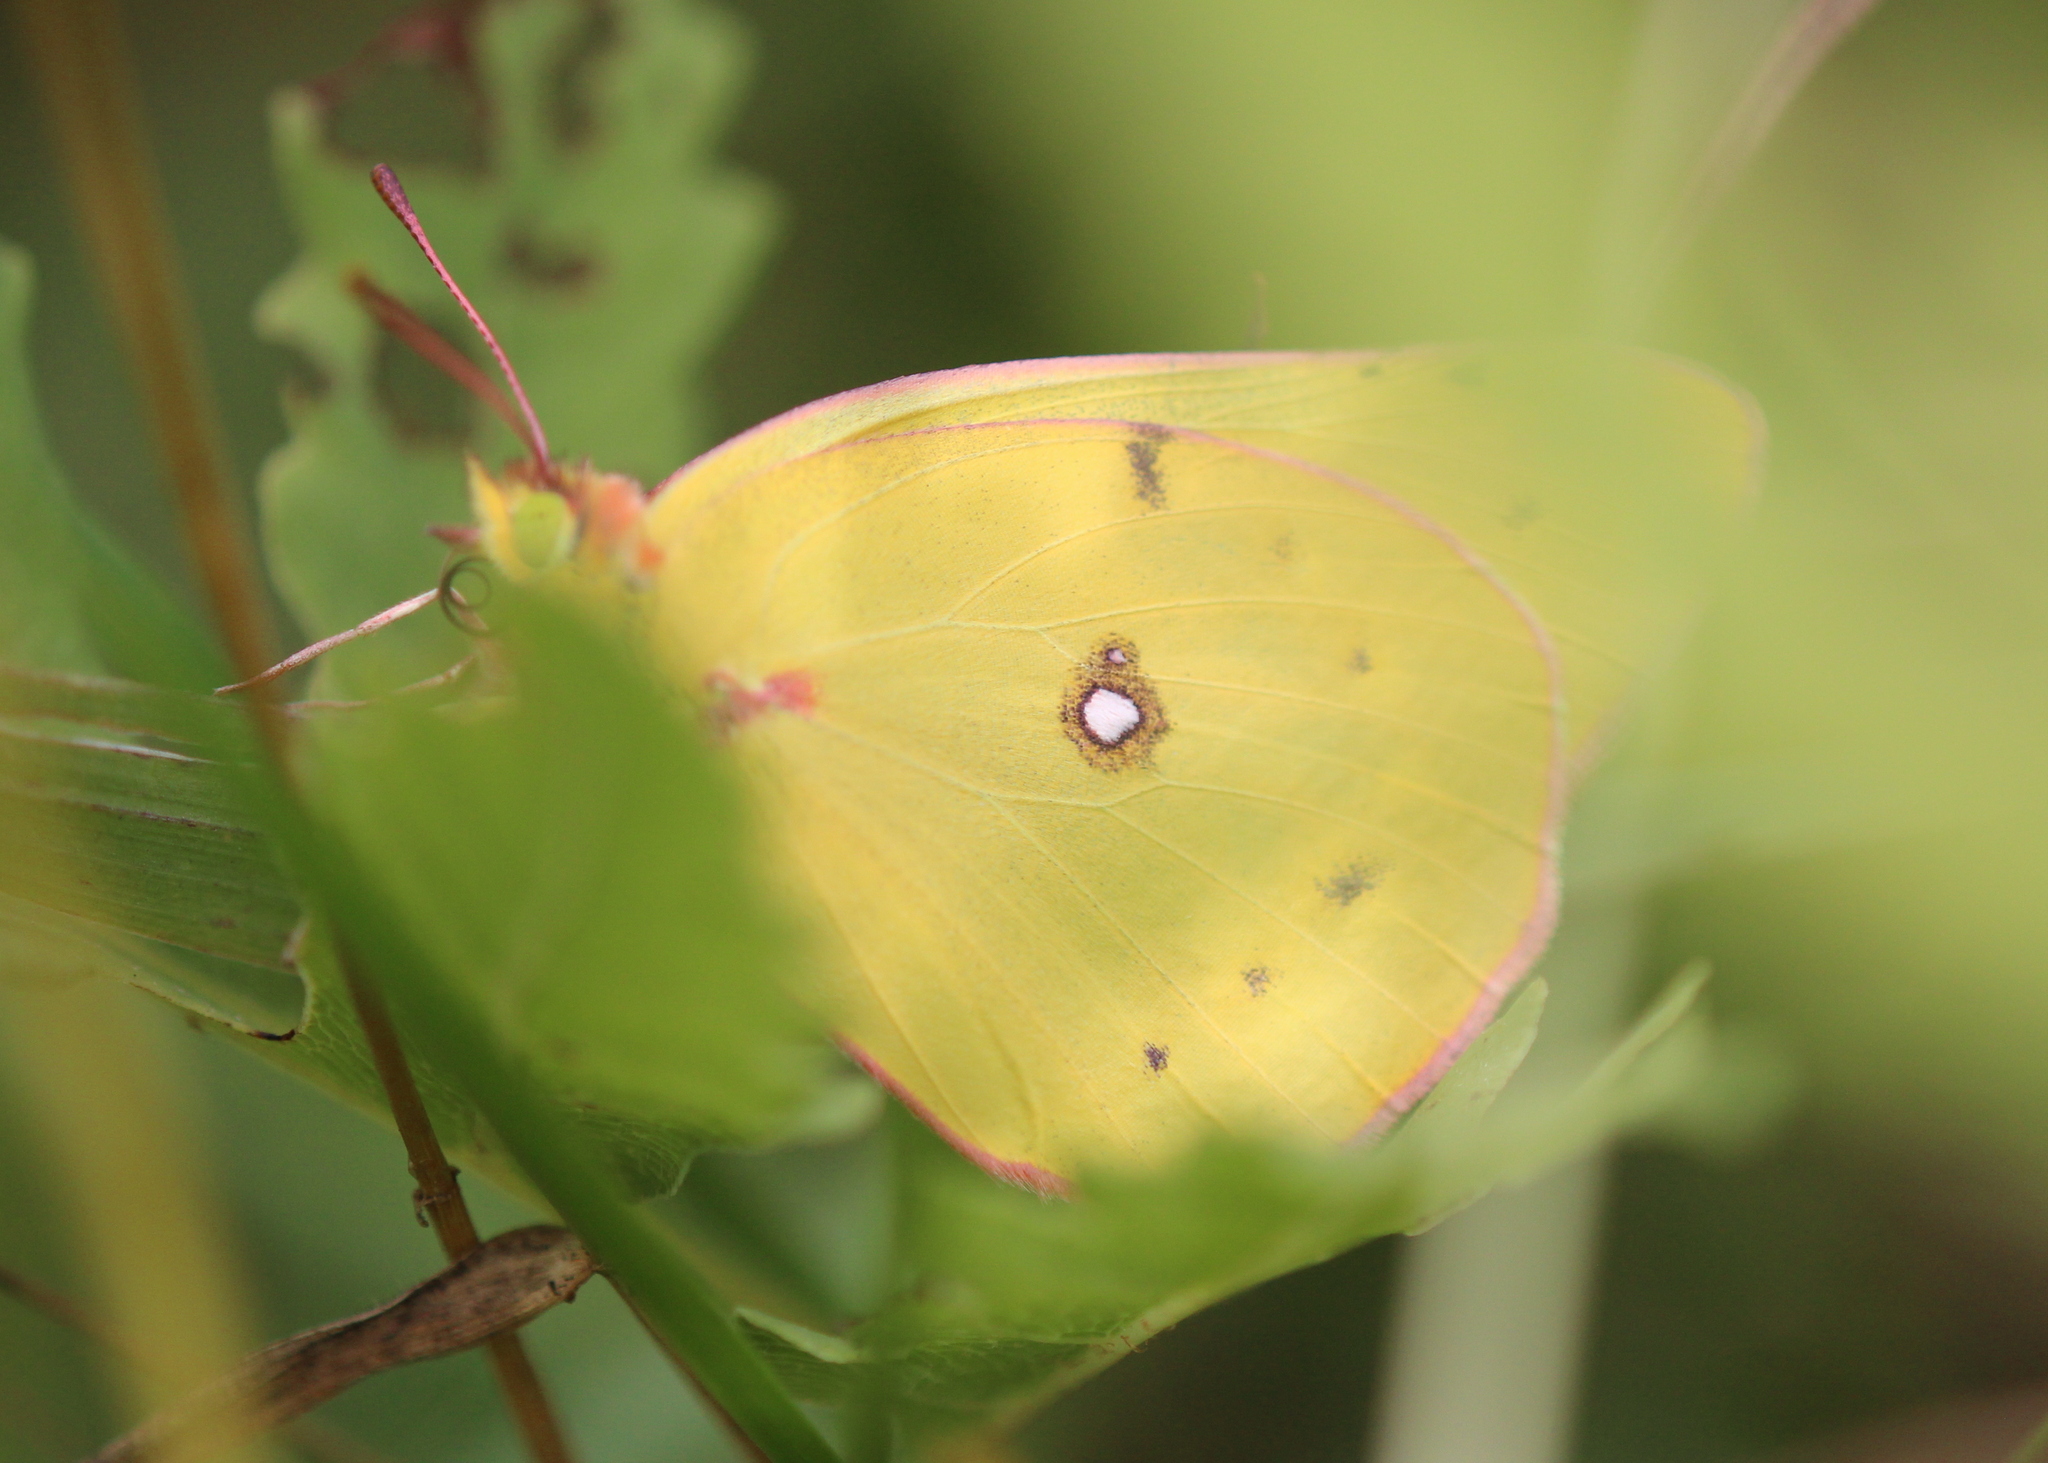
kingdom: Animalia
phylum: Arthropoda
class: Insecta
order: Lepidoptera
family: Pieridae
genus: Colias
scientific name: Colias philodice
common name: Clouded sulphur
